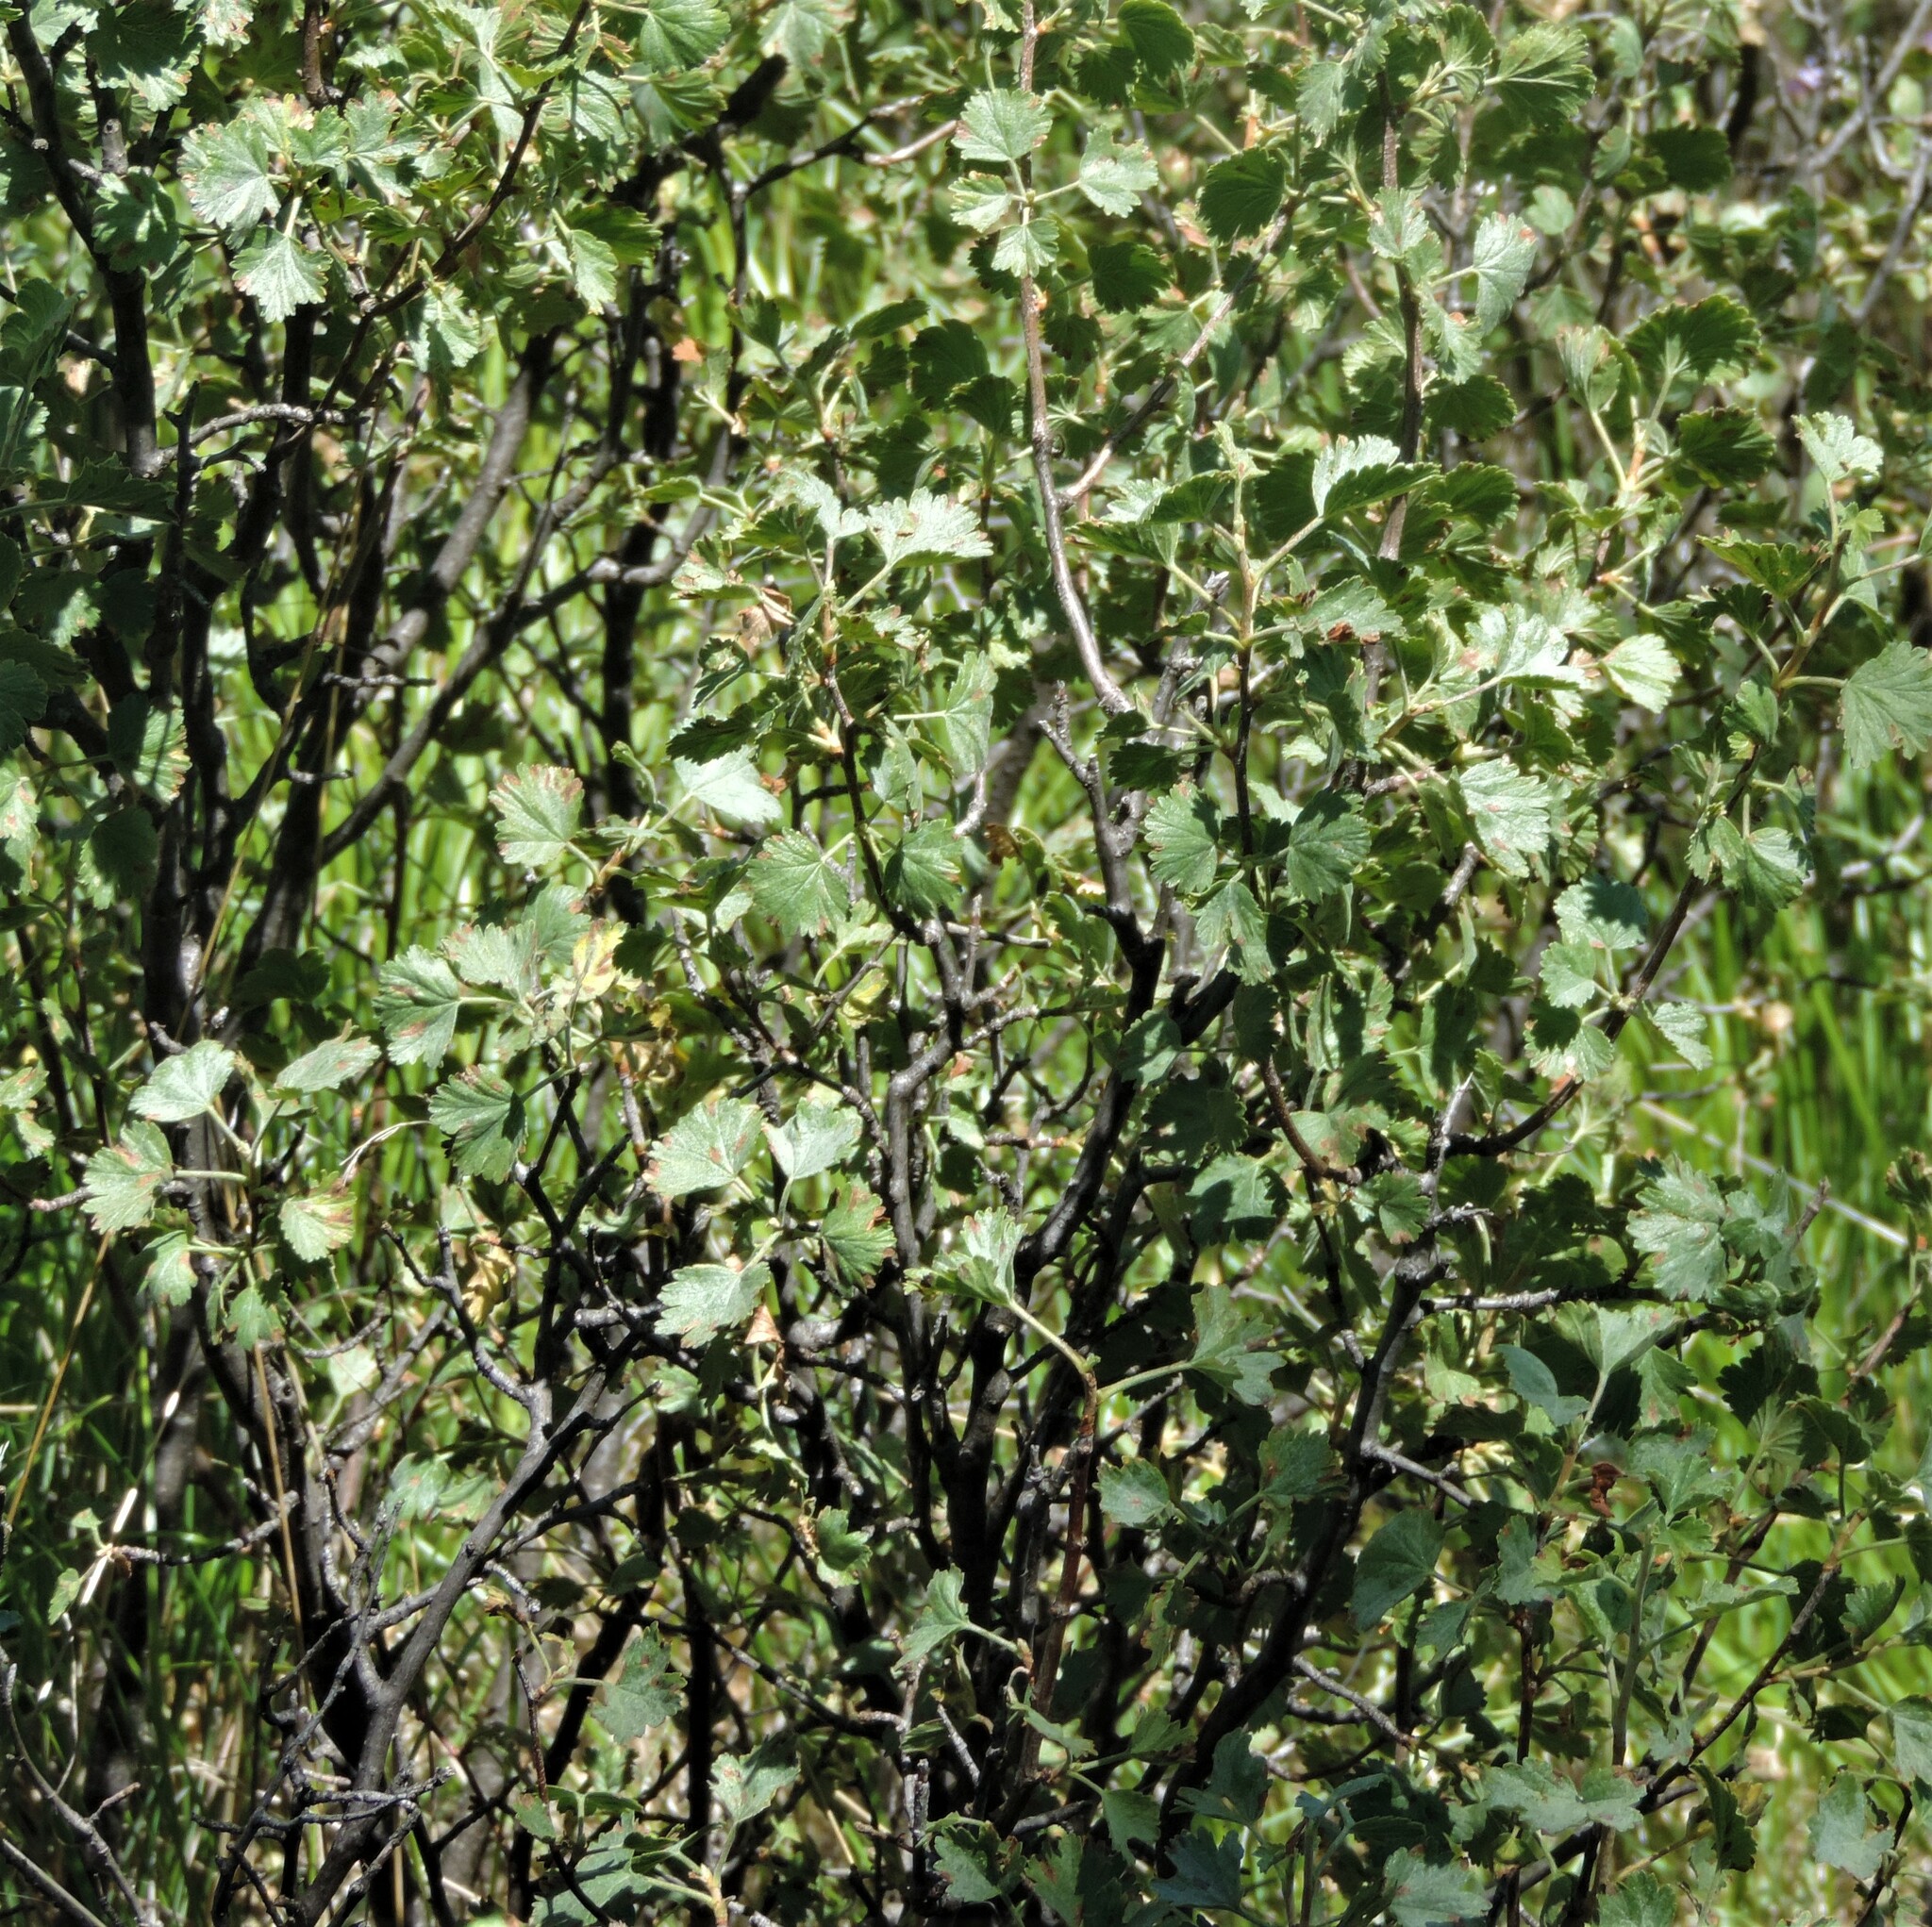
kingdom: Plantae
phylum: Tracheophyta
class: Magnoliopsida
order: Saxifragales
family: Grossulariaceae
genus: Ribes
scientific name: Ribes cereum
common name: Wax currant
